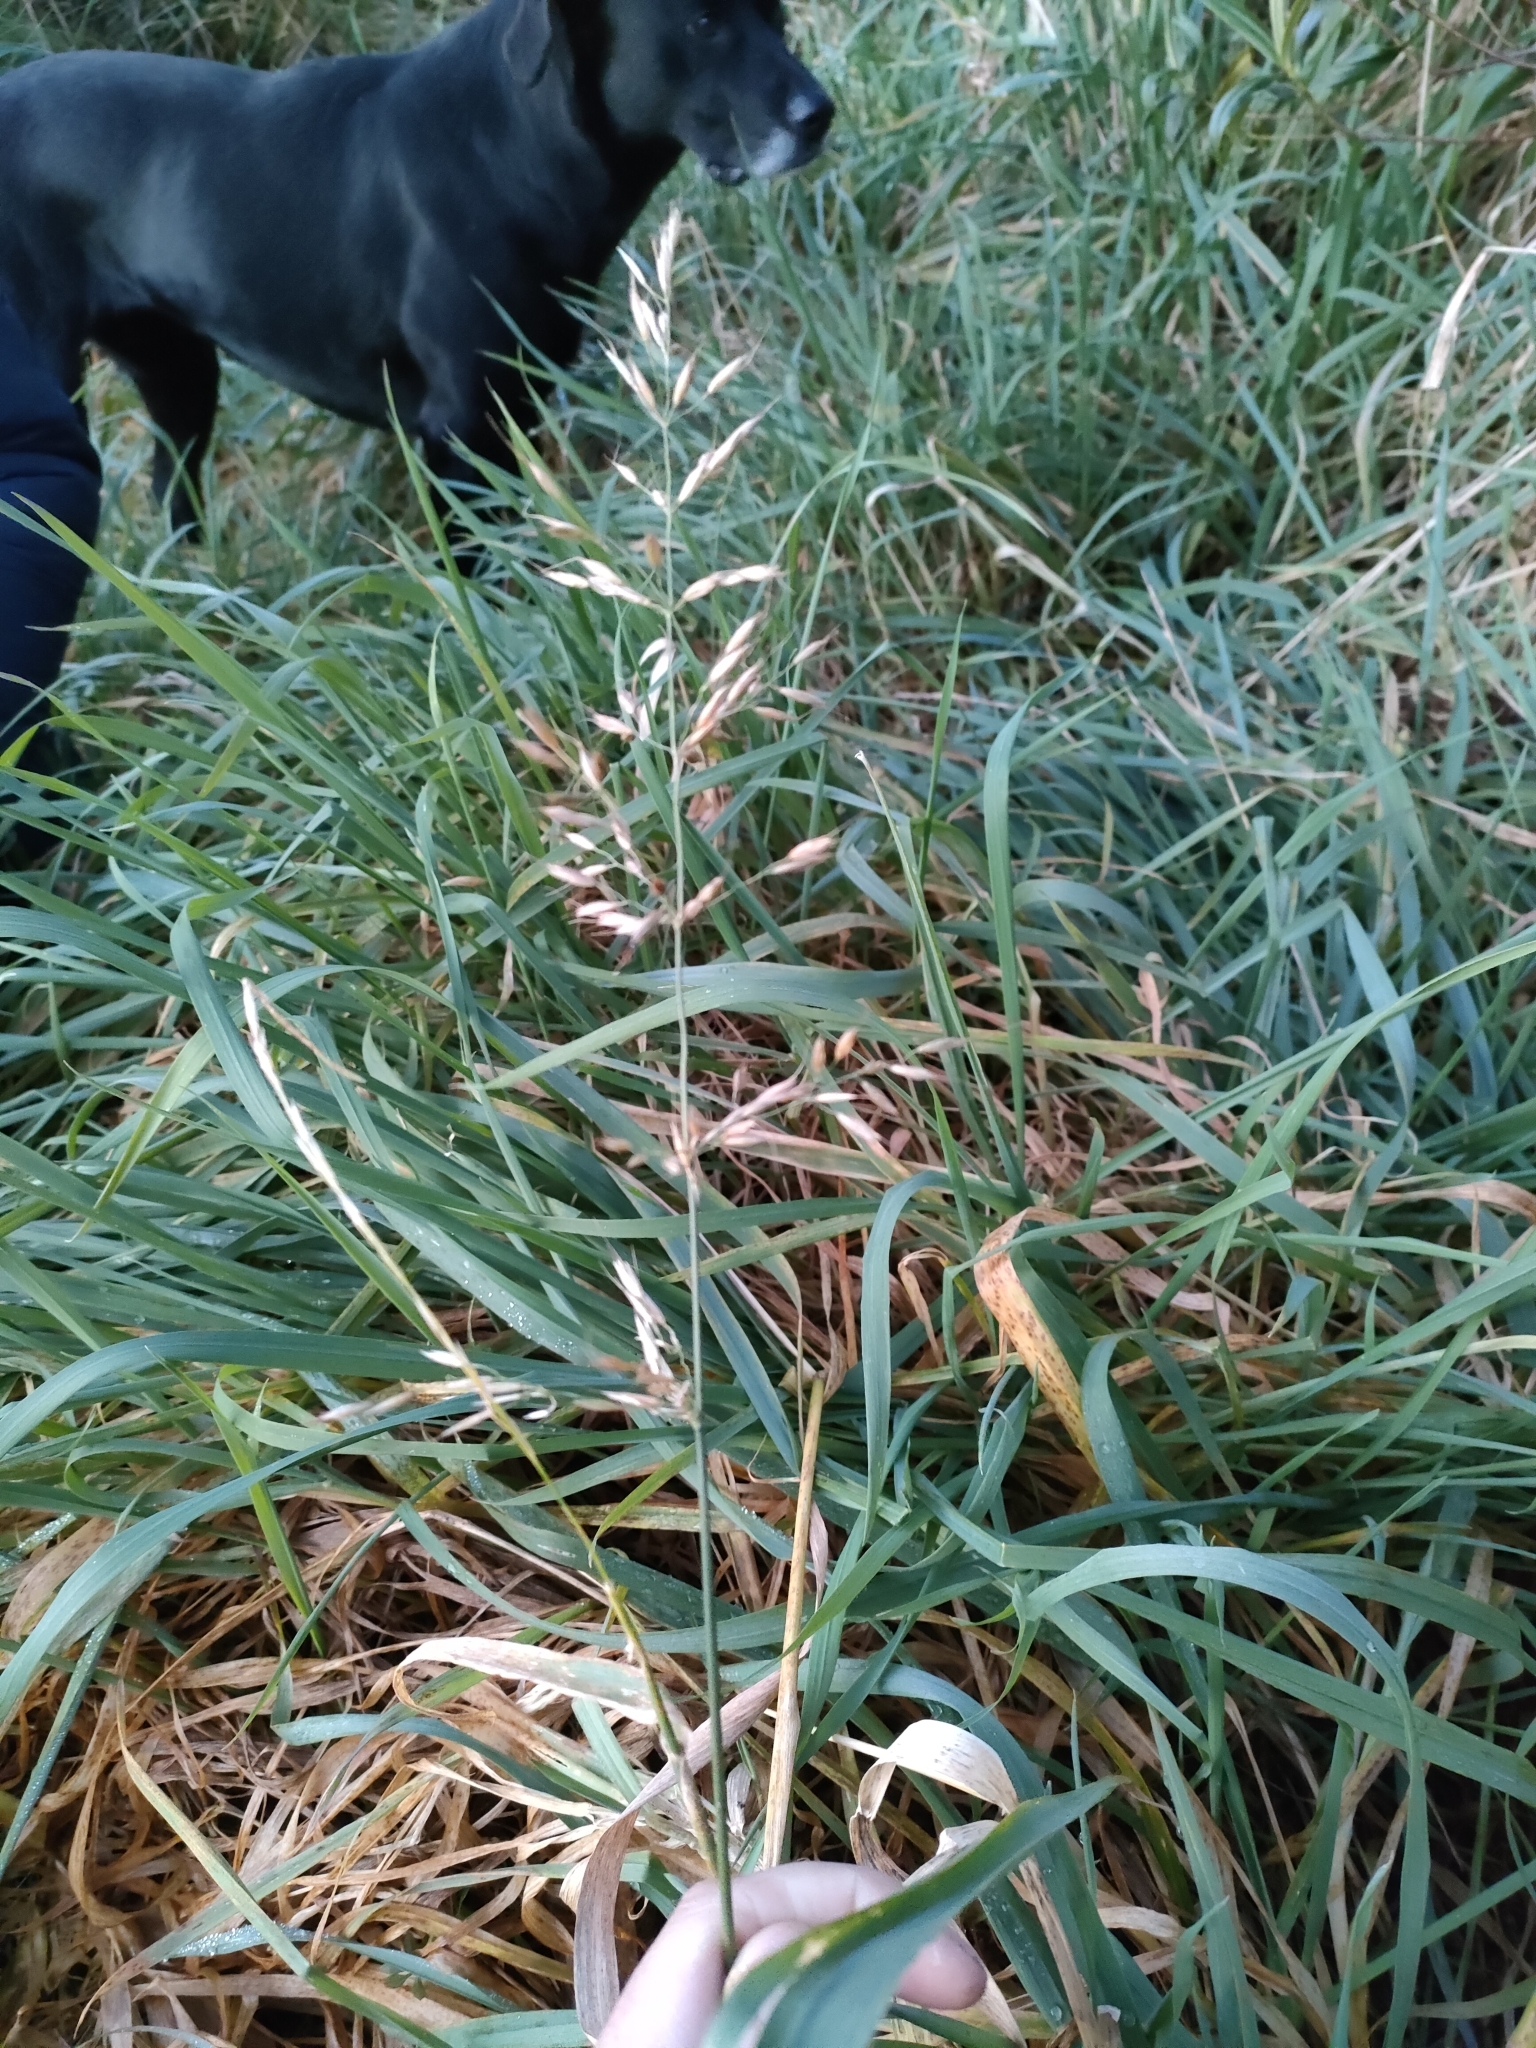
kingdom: Plantae
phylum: Tracheophyta
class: Liliopsida
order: Poales
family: Poaceae
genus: Arrhenatherum
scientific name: Arrhenatherum elatius
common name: Tall oatgrass
